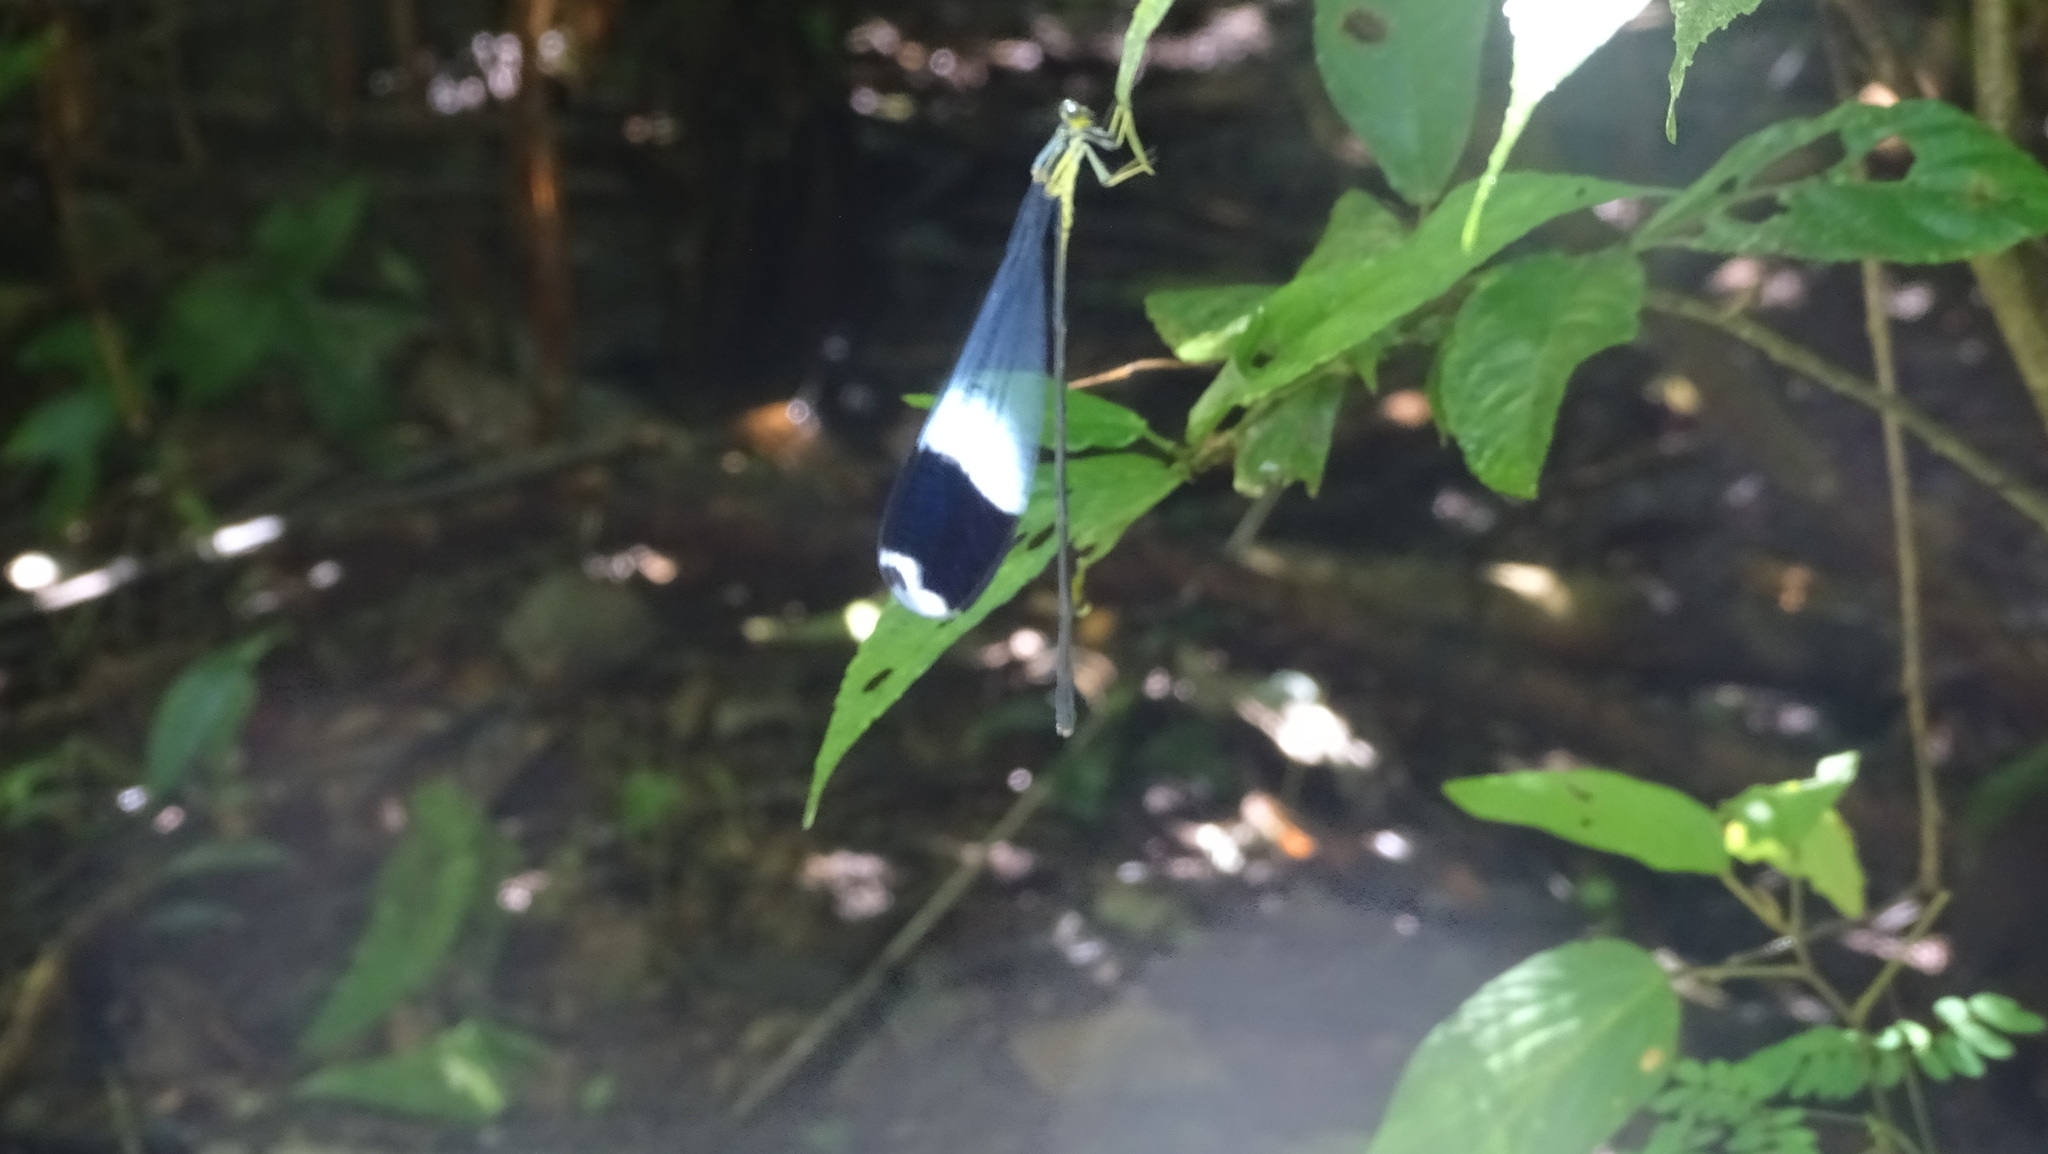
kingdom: Animalia
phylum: Arthropoda
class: Insecta
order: Odonata
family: Coenagrionidae
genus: Megaloprepus
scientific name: Megaloprepus caerulatus
